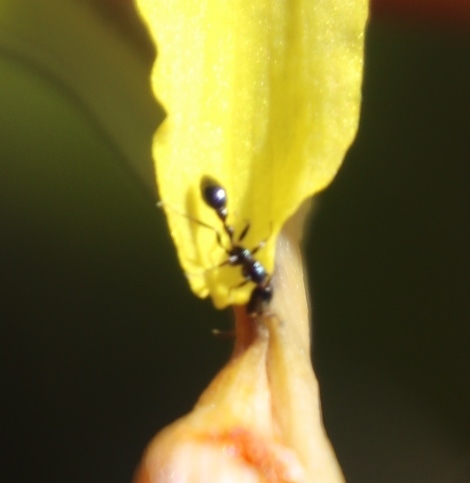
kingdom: Animalia
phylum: Arthropoda
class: Insecta
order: Hymenoptera
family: Formicidae
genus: Tetraponera
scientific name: Tetraponera clypeata
